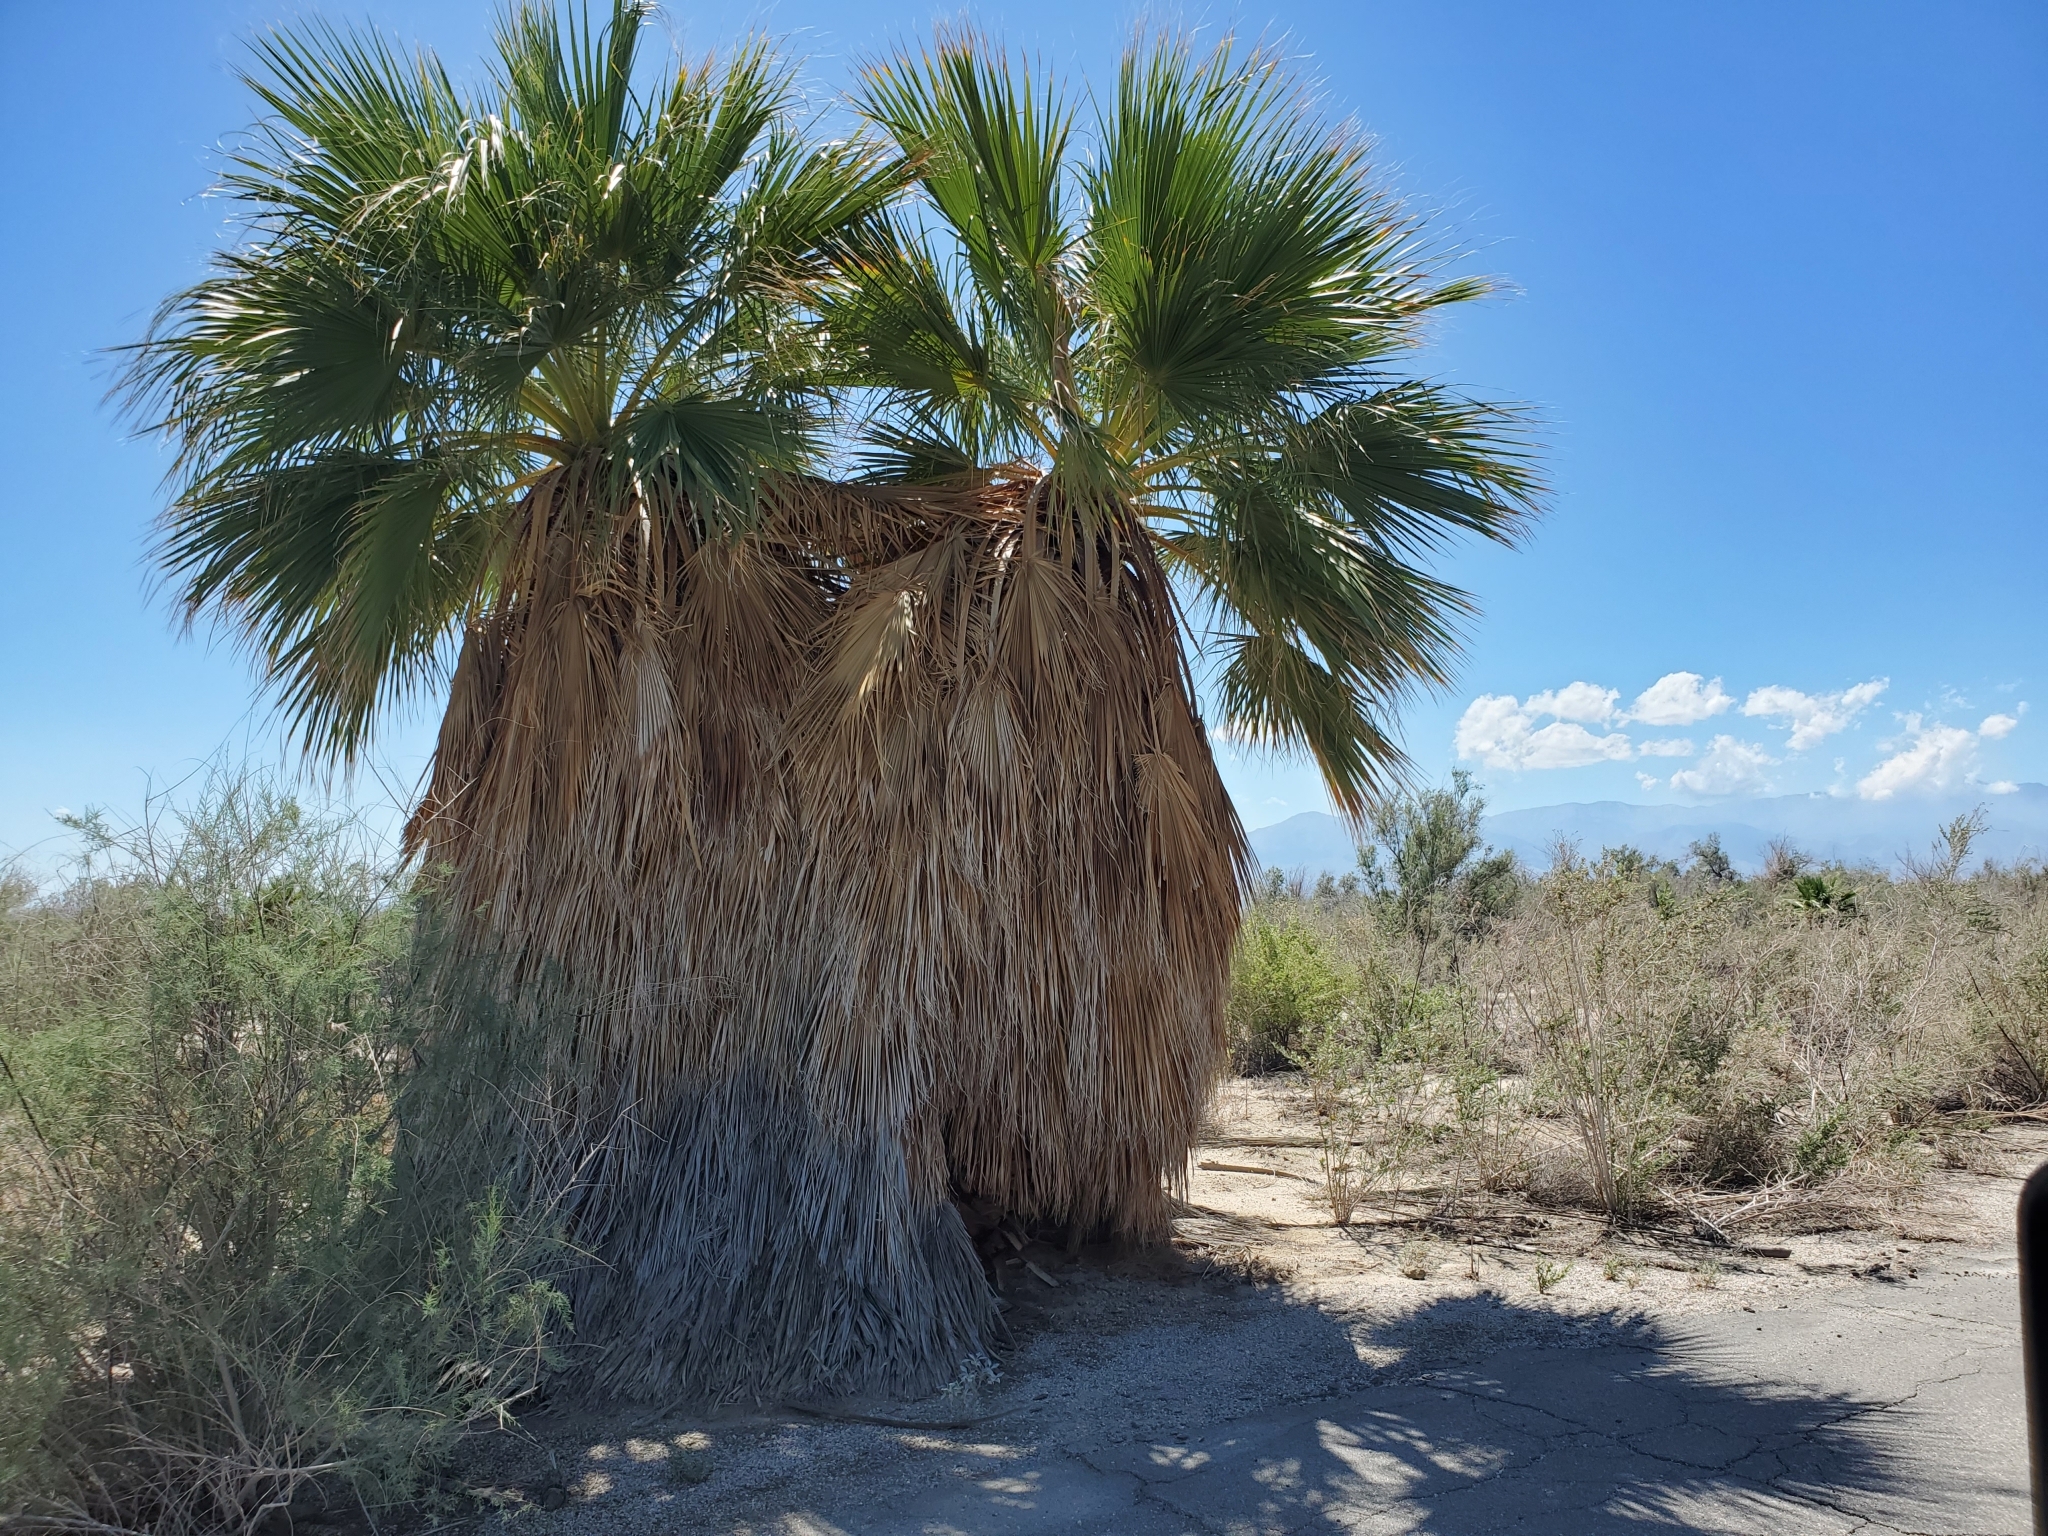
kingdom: Plantae
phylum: Tracheophyta
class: Liliopsida
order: Arecales
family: Arecaceae
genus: Washingtonia
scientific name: Washingtonia filifera
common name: California fan palm
